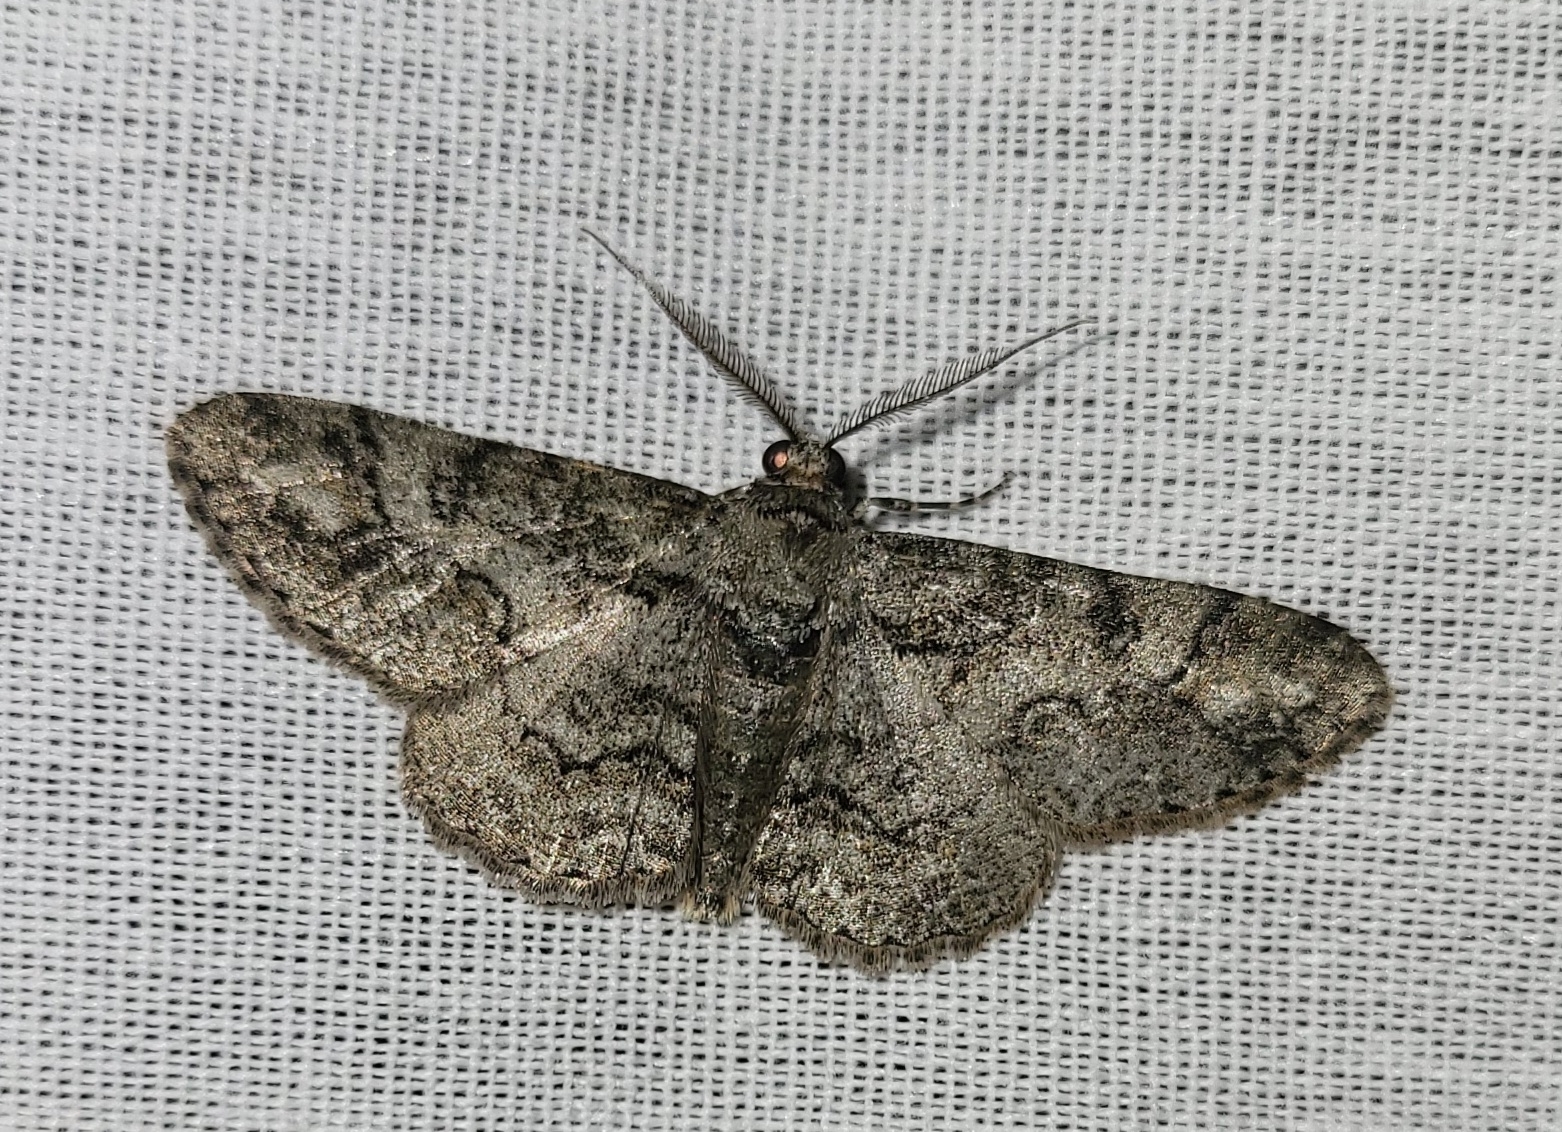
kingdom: Animalia
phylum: Arthropoda
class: Insecta
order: Lepidoptera
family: Geometridae
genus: Cleora
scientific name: Cleora sublunaria
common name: Double-lined gray
